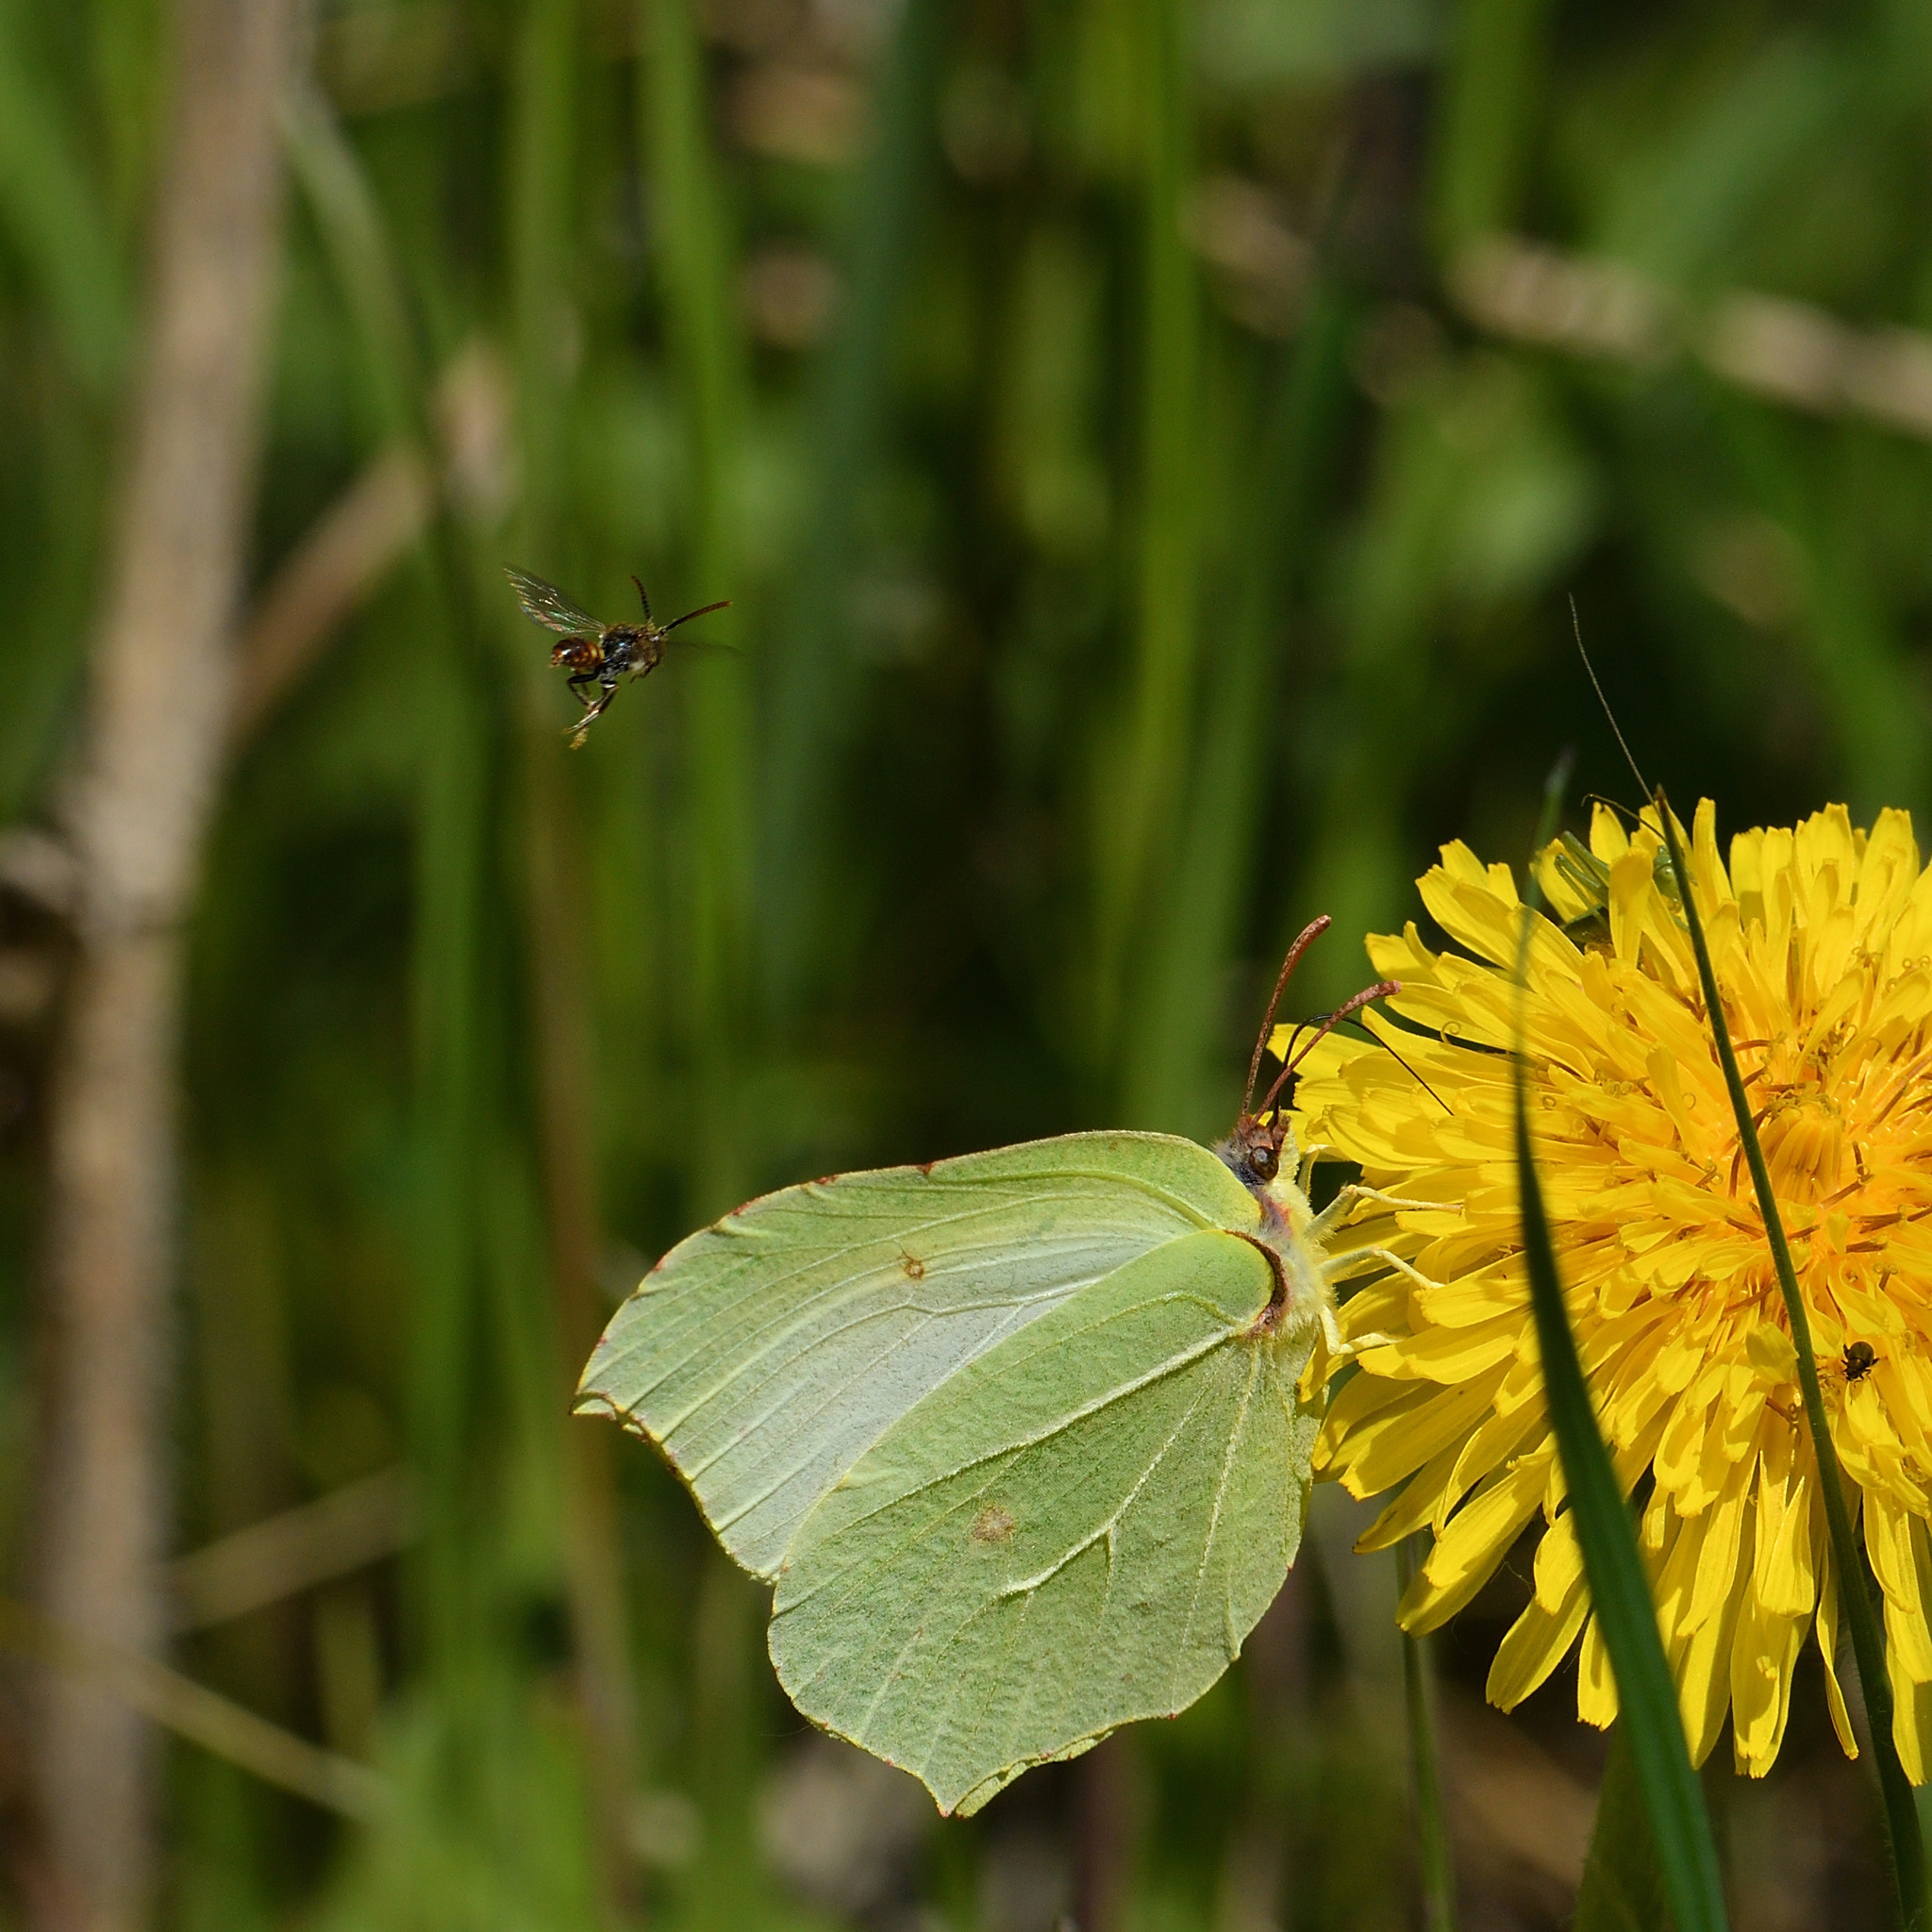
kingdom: Animalia
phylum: Arthropoda
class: Insecta
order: Lepidoptera
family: Pieridae
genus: Gonepteryx
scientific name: Gonepteryx rhamni
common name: Brimstone
